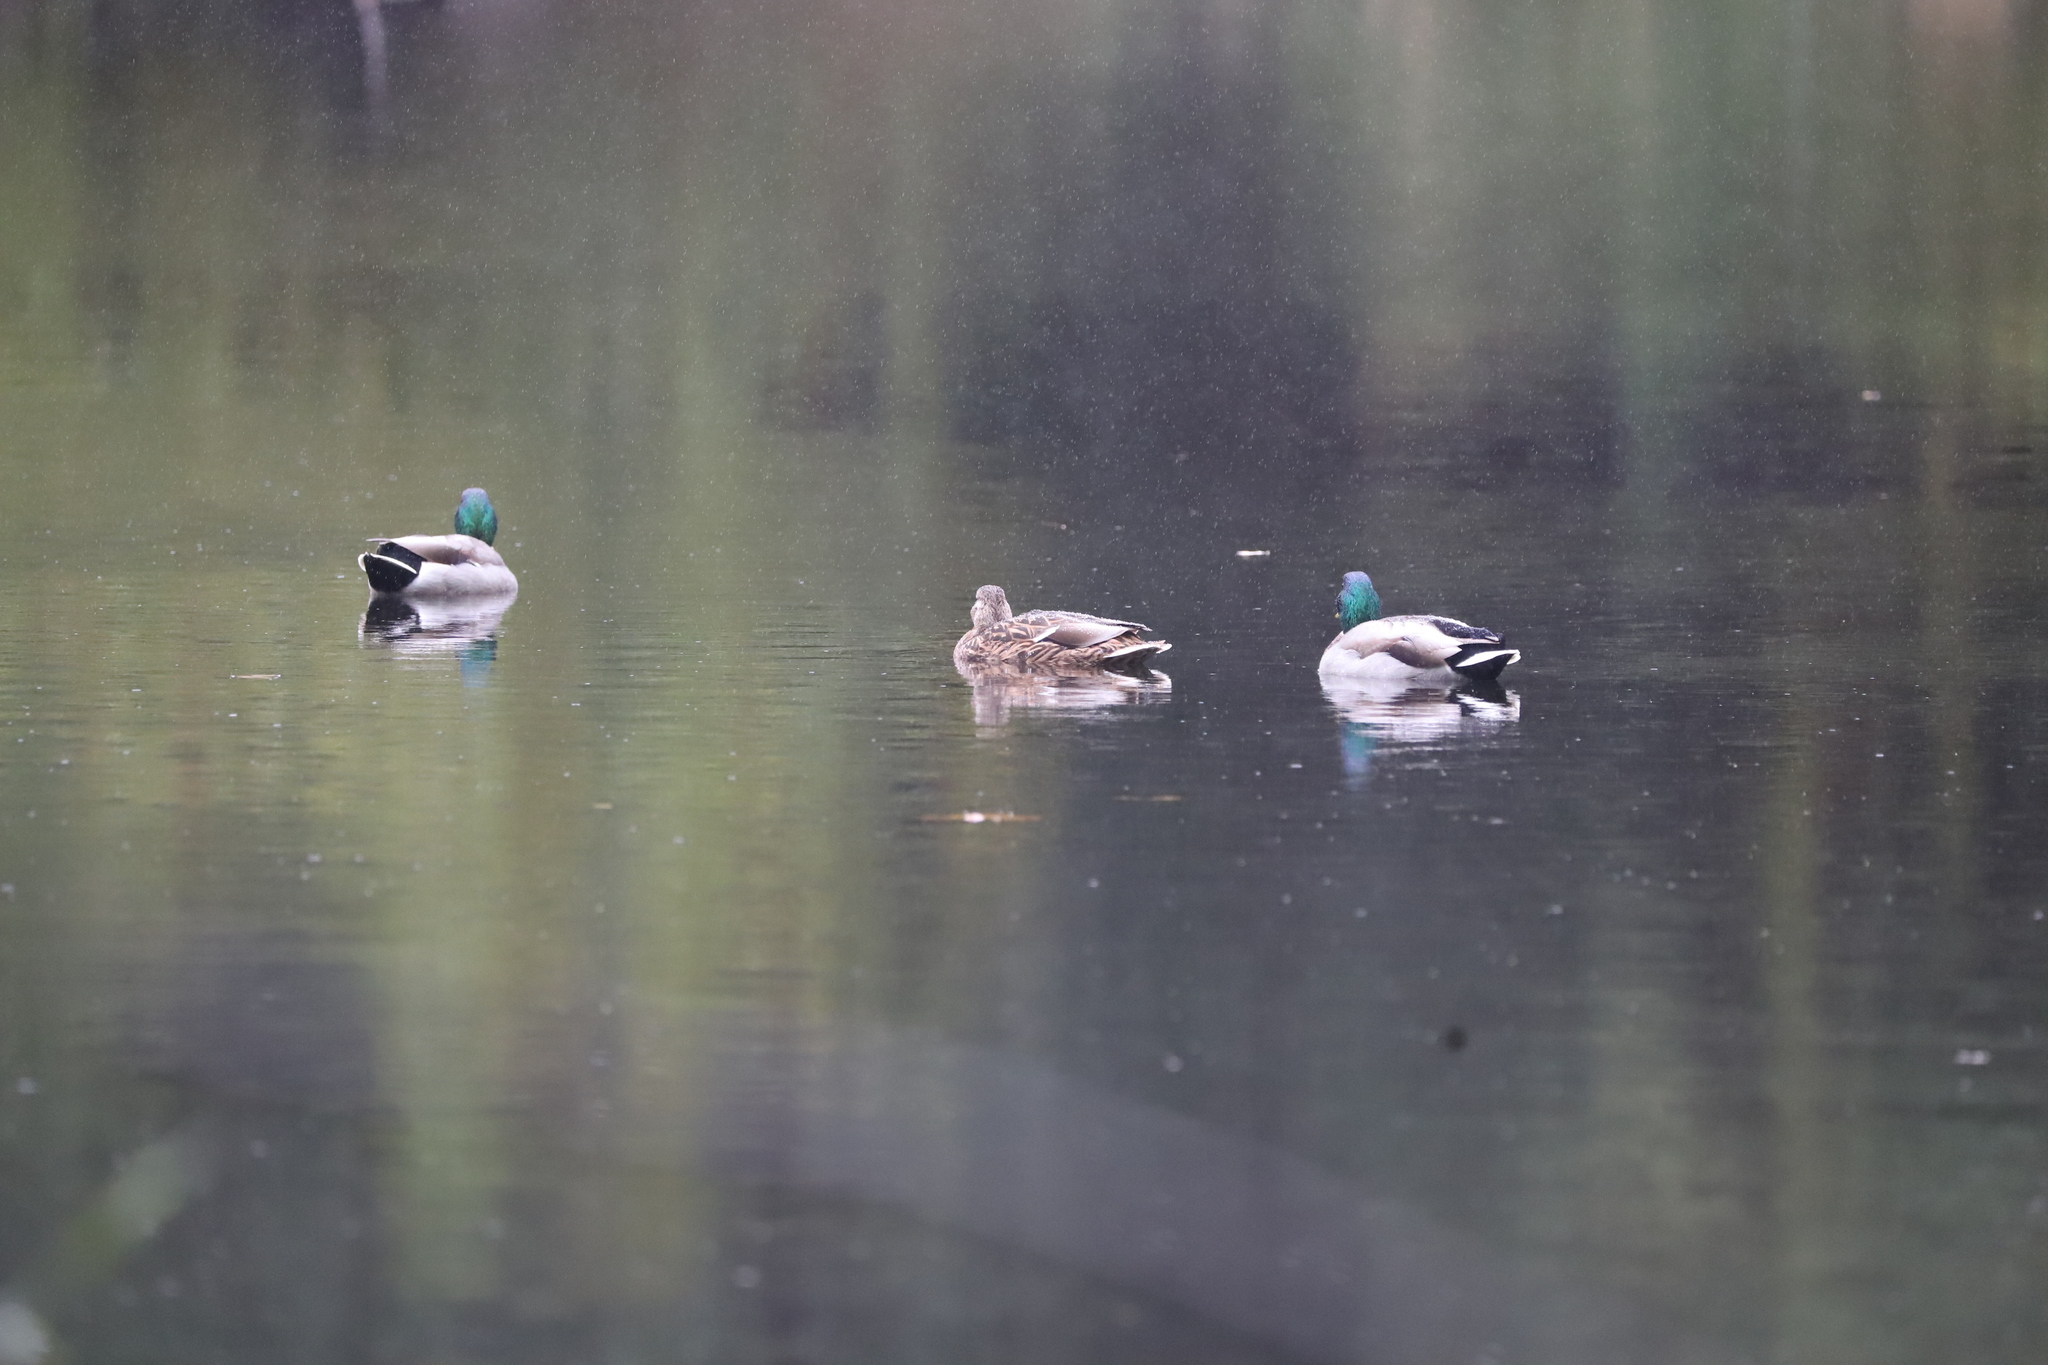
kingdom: Animalia
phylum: Chordata
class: Aves
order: Anseriformes
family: Anatidae
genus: Anas
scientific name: Anas platyrhynchos
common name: Mallard
